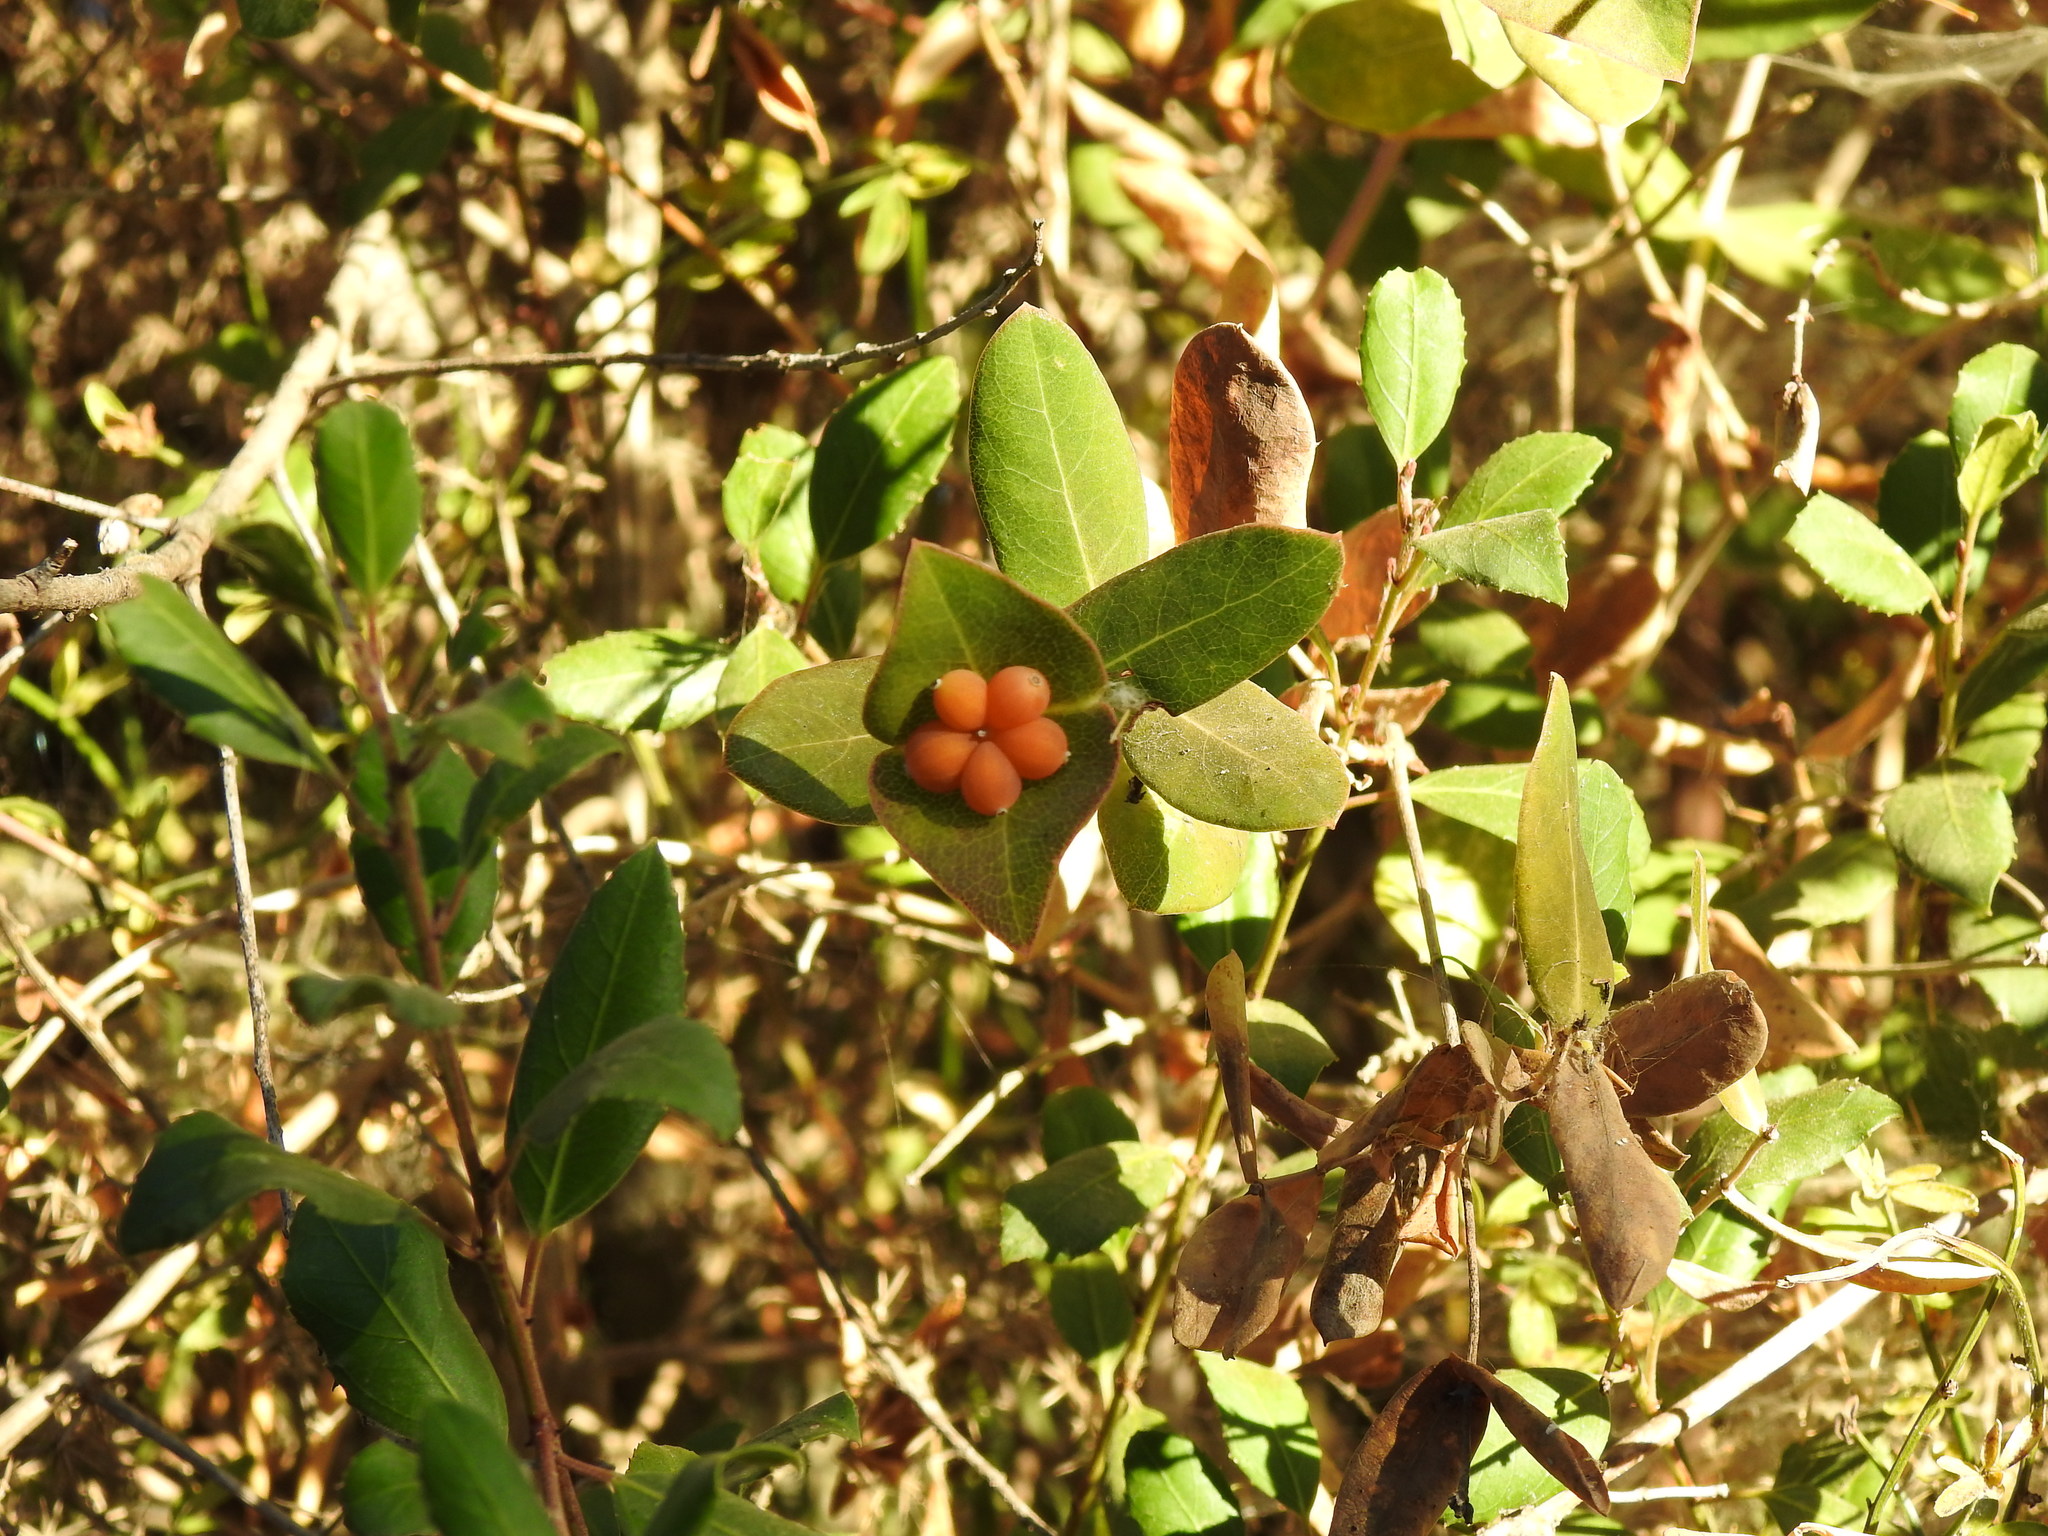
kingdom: Plantae
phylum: Tracheophyta
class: Magnoliopsida
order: Dipsacales
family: Caprifoliaceae
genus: Lonicera
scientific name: Lonicera implexa
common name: Minorca honeysuckle
